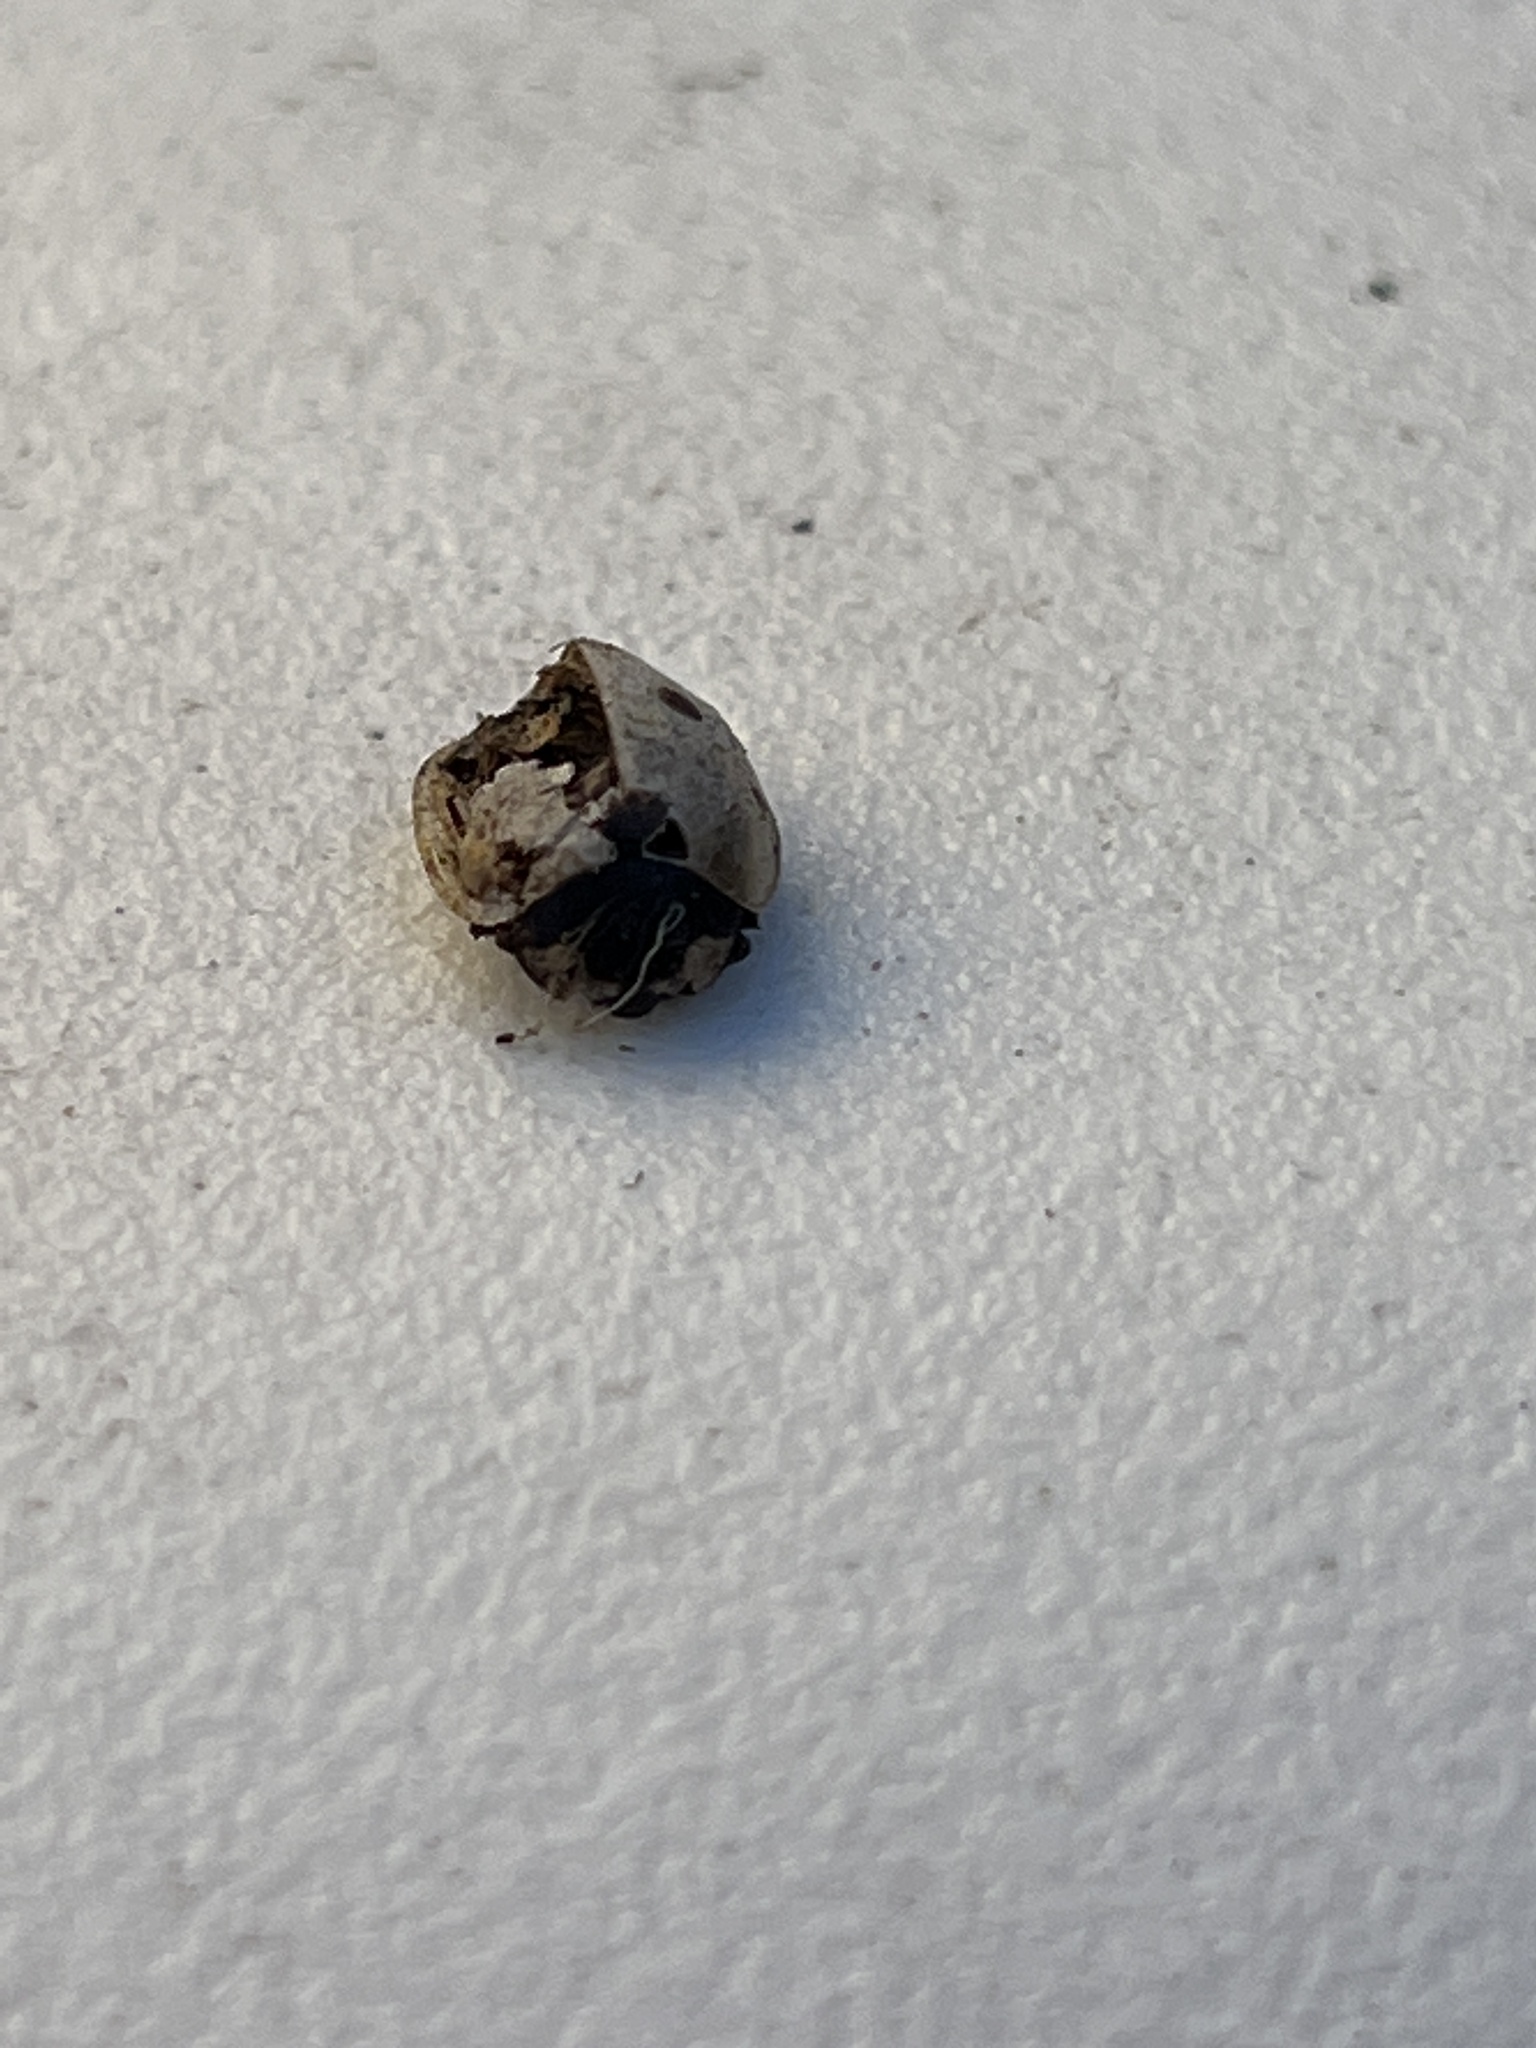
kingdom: Animalia
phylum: Arthropoda
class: Insecta
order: Coleoptera
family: Coccinellidae
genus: Coccinella
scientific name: Coccinella septempunctata
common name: Sevenspotted lady beetle
